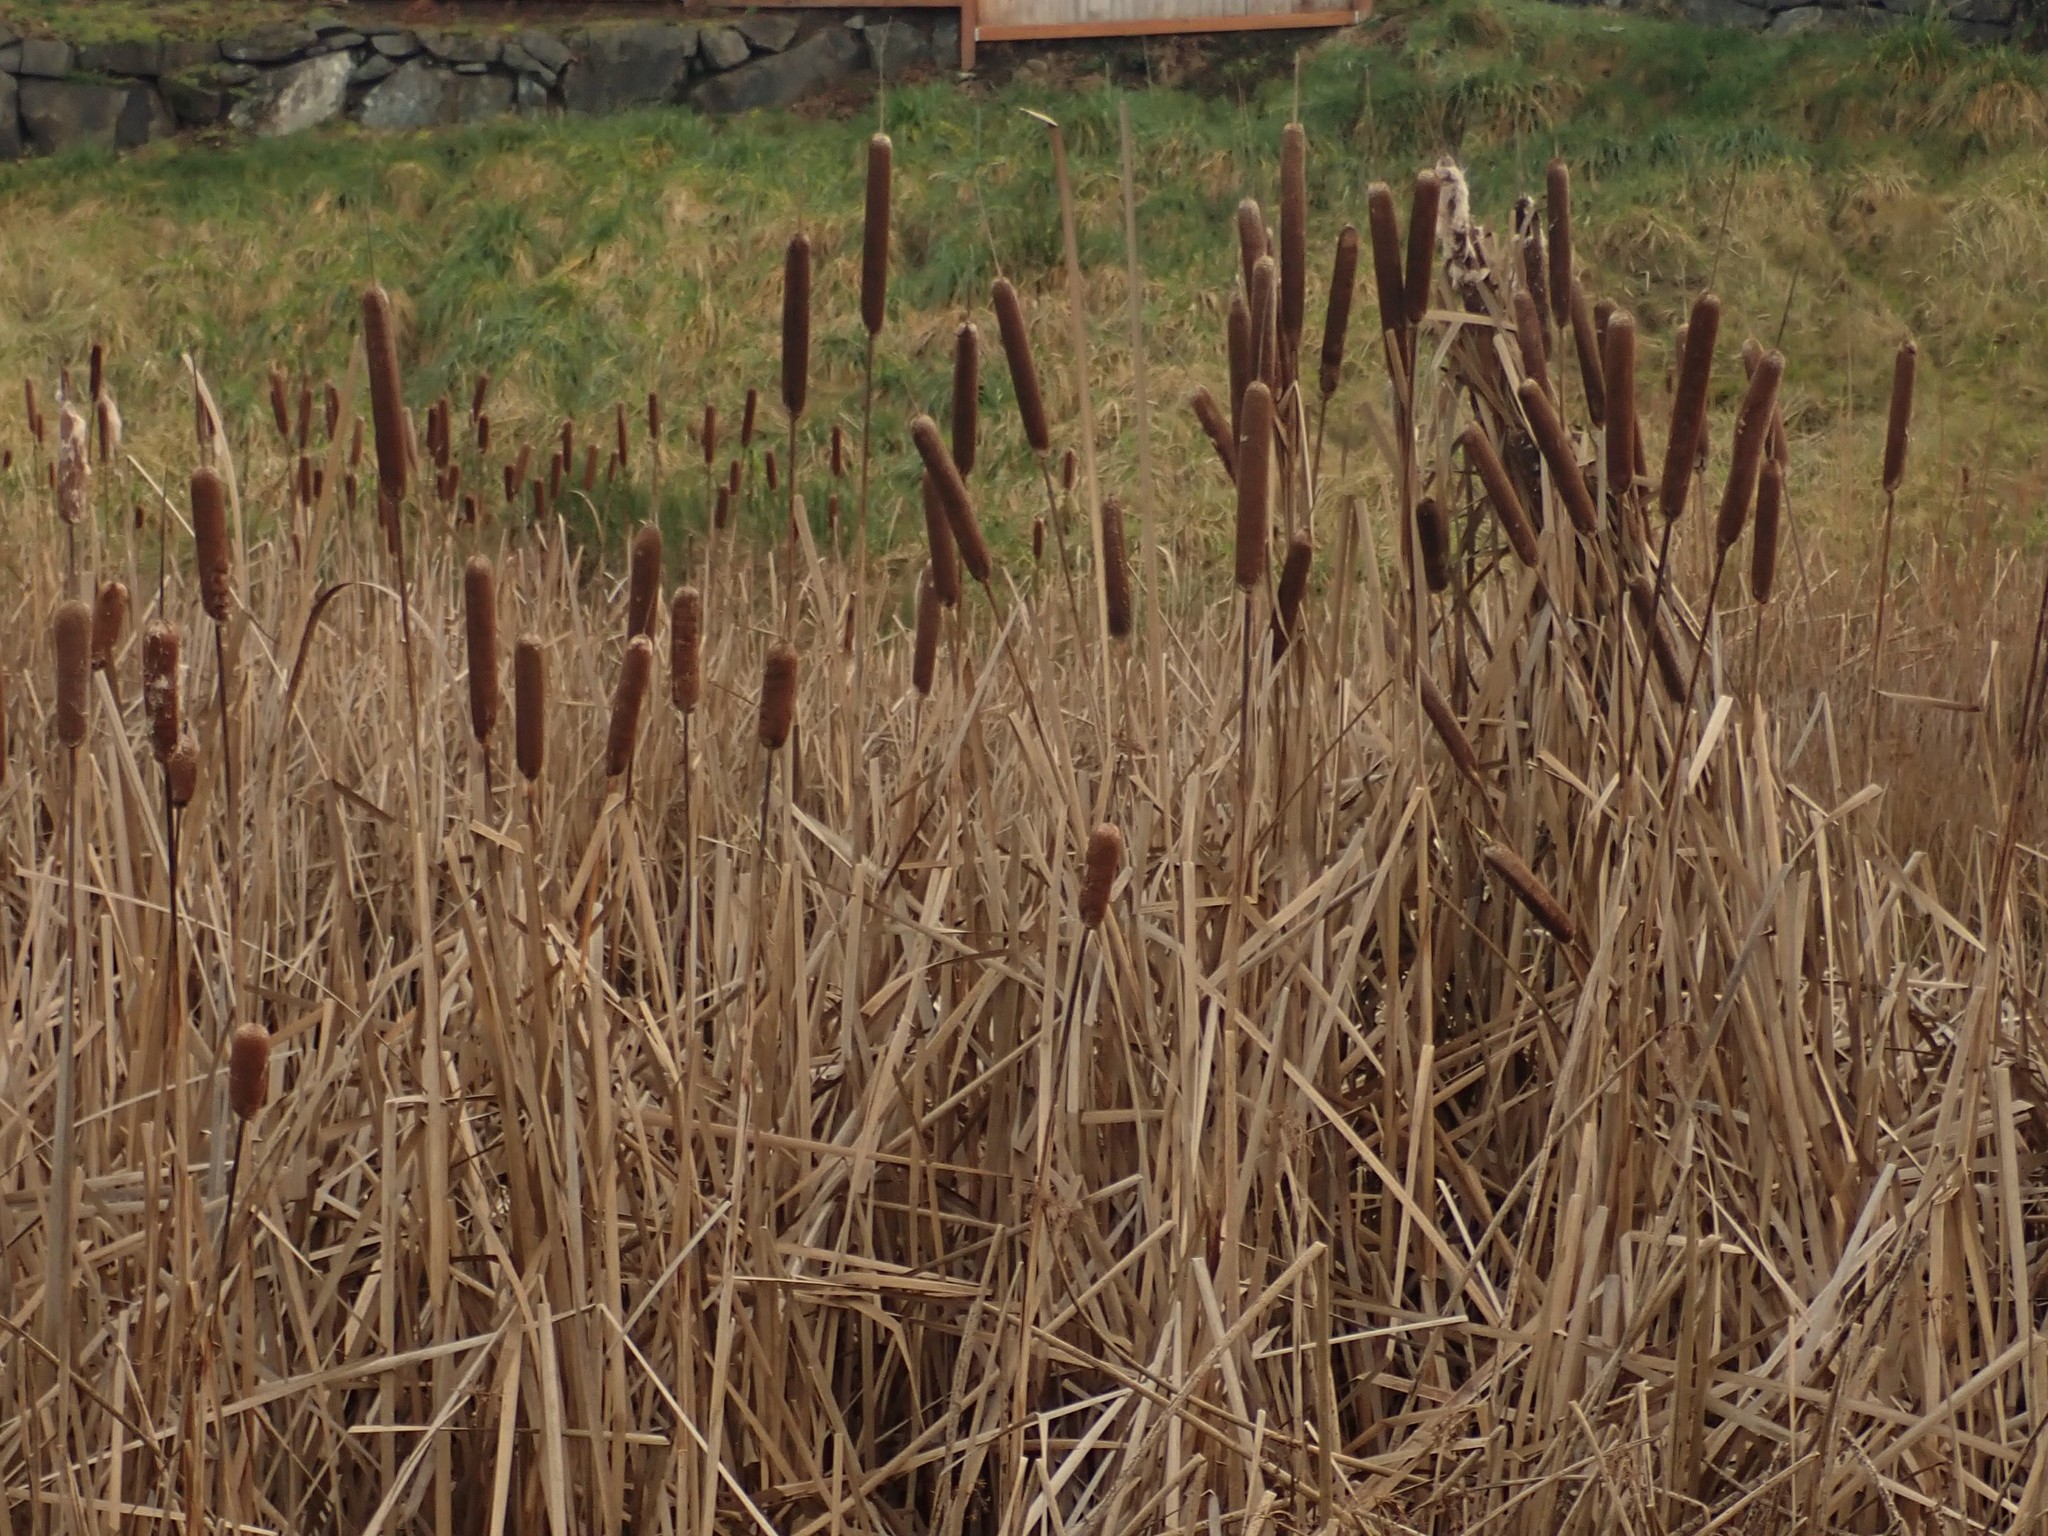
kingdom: Plantae
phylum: Tracheophyta
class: Liliopsida
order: Poales
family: Typhaceae
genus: Typha
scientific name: Typha latifolia
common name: Broadleaf cattail
